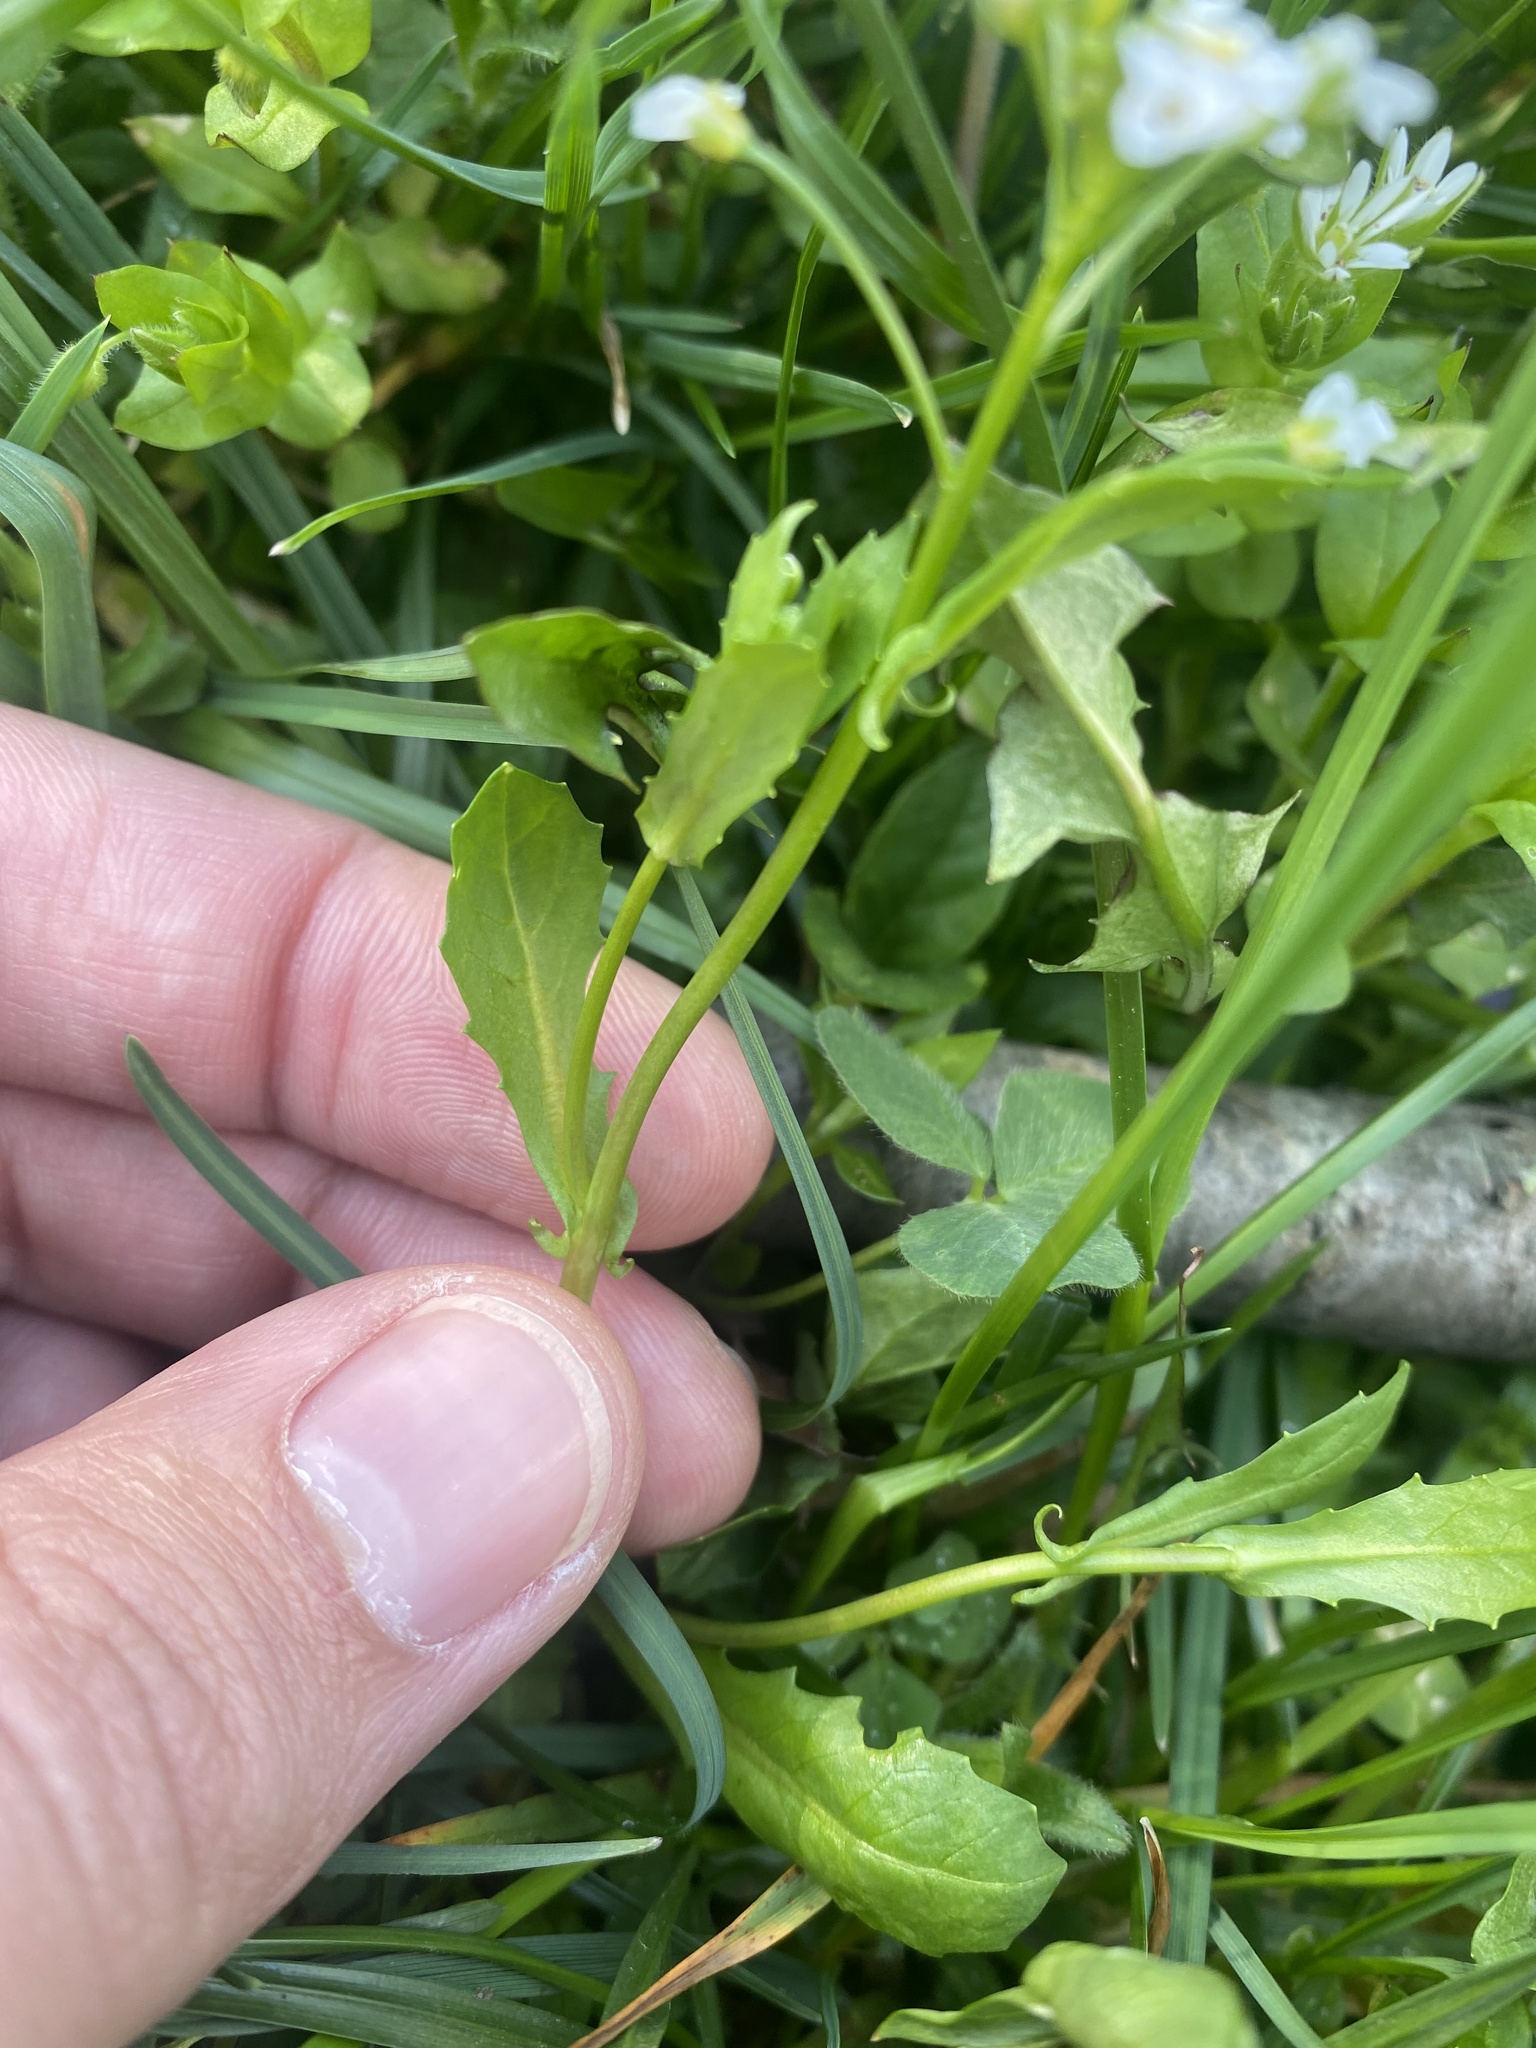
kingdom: Plantae
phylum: Tracheophyta
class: Magnoliopsida
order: Brassicales
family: Brassicaceae
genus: Calepina
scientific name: Calepina irregularis
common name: White ballmustard
